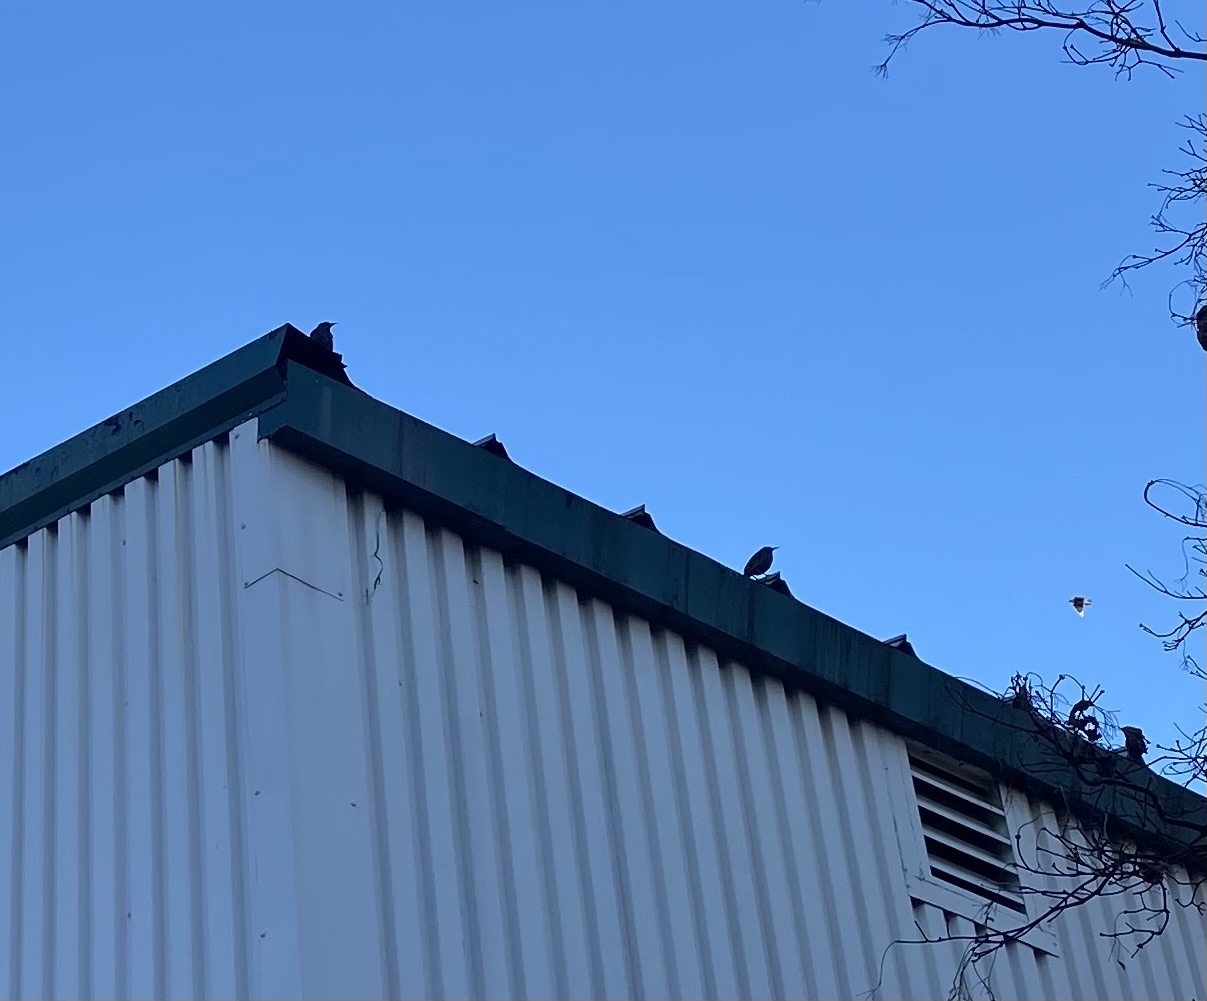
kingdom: Animalia
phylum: Chordata
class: Aves
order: Passeriformes
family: Sturnidae
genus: Sturnus
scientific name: Sturnus vulgaris
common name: Common starling
